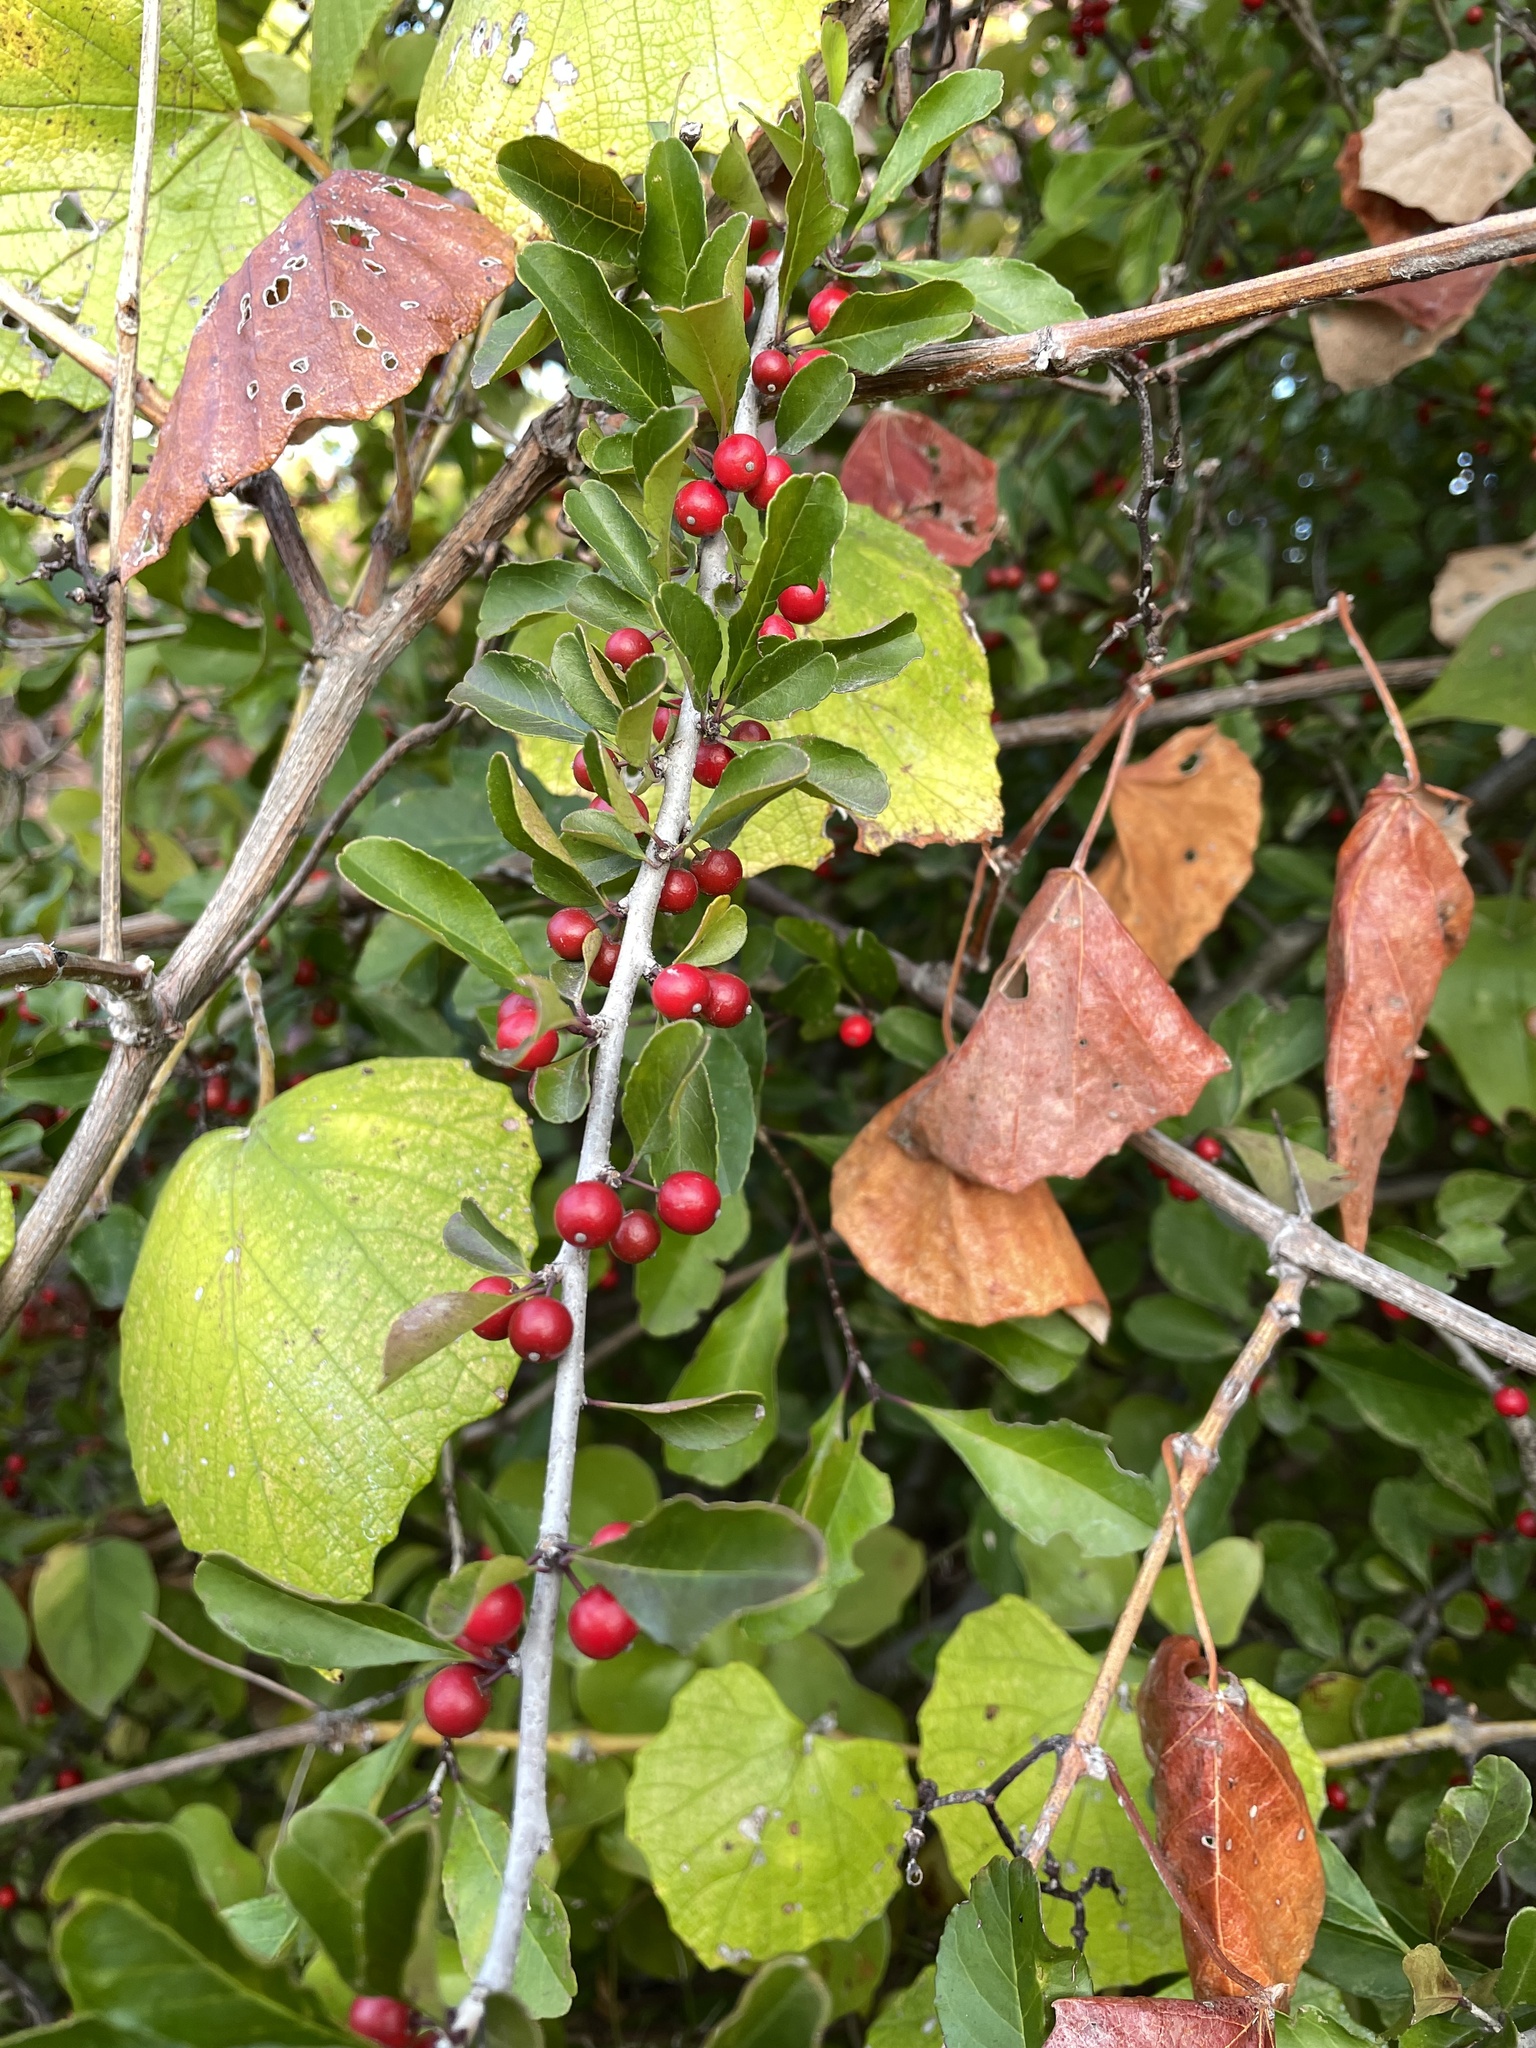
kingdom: Plantae
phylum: Tracheophyta
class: Magnoliopsida
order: Aquifoliales
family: Aquifoliaceae
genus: Ilex
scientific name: Ilex decidua
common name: Possum-haw
